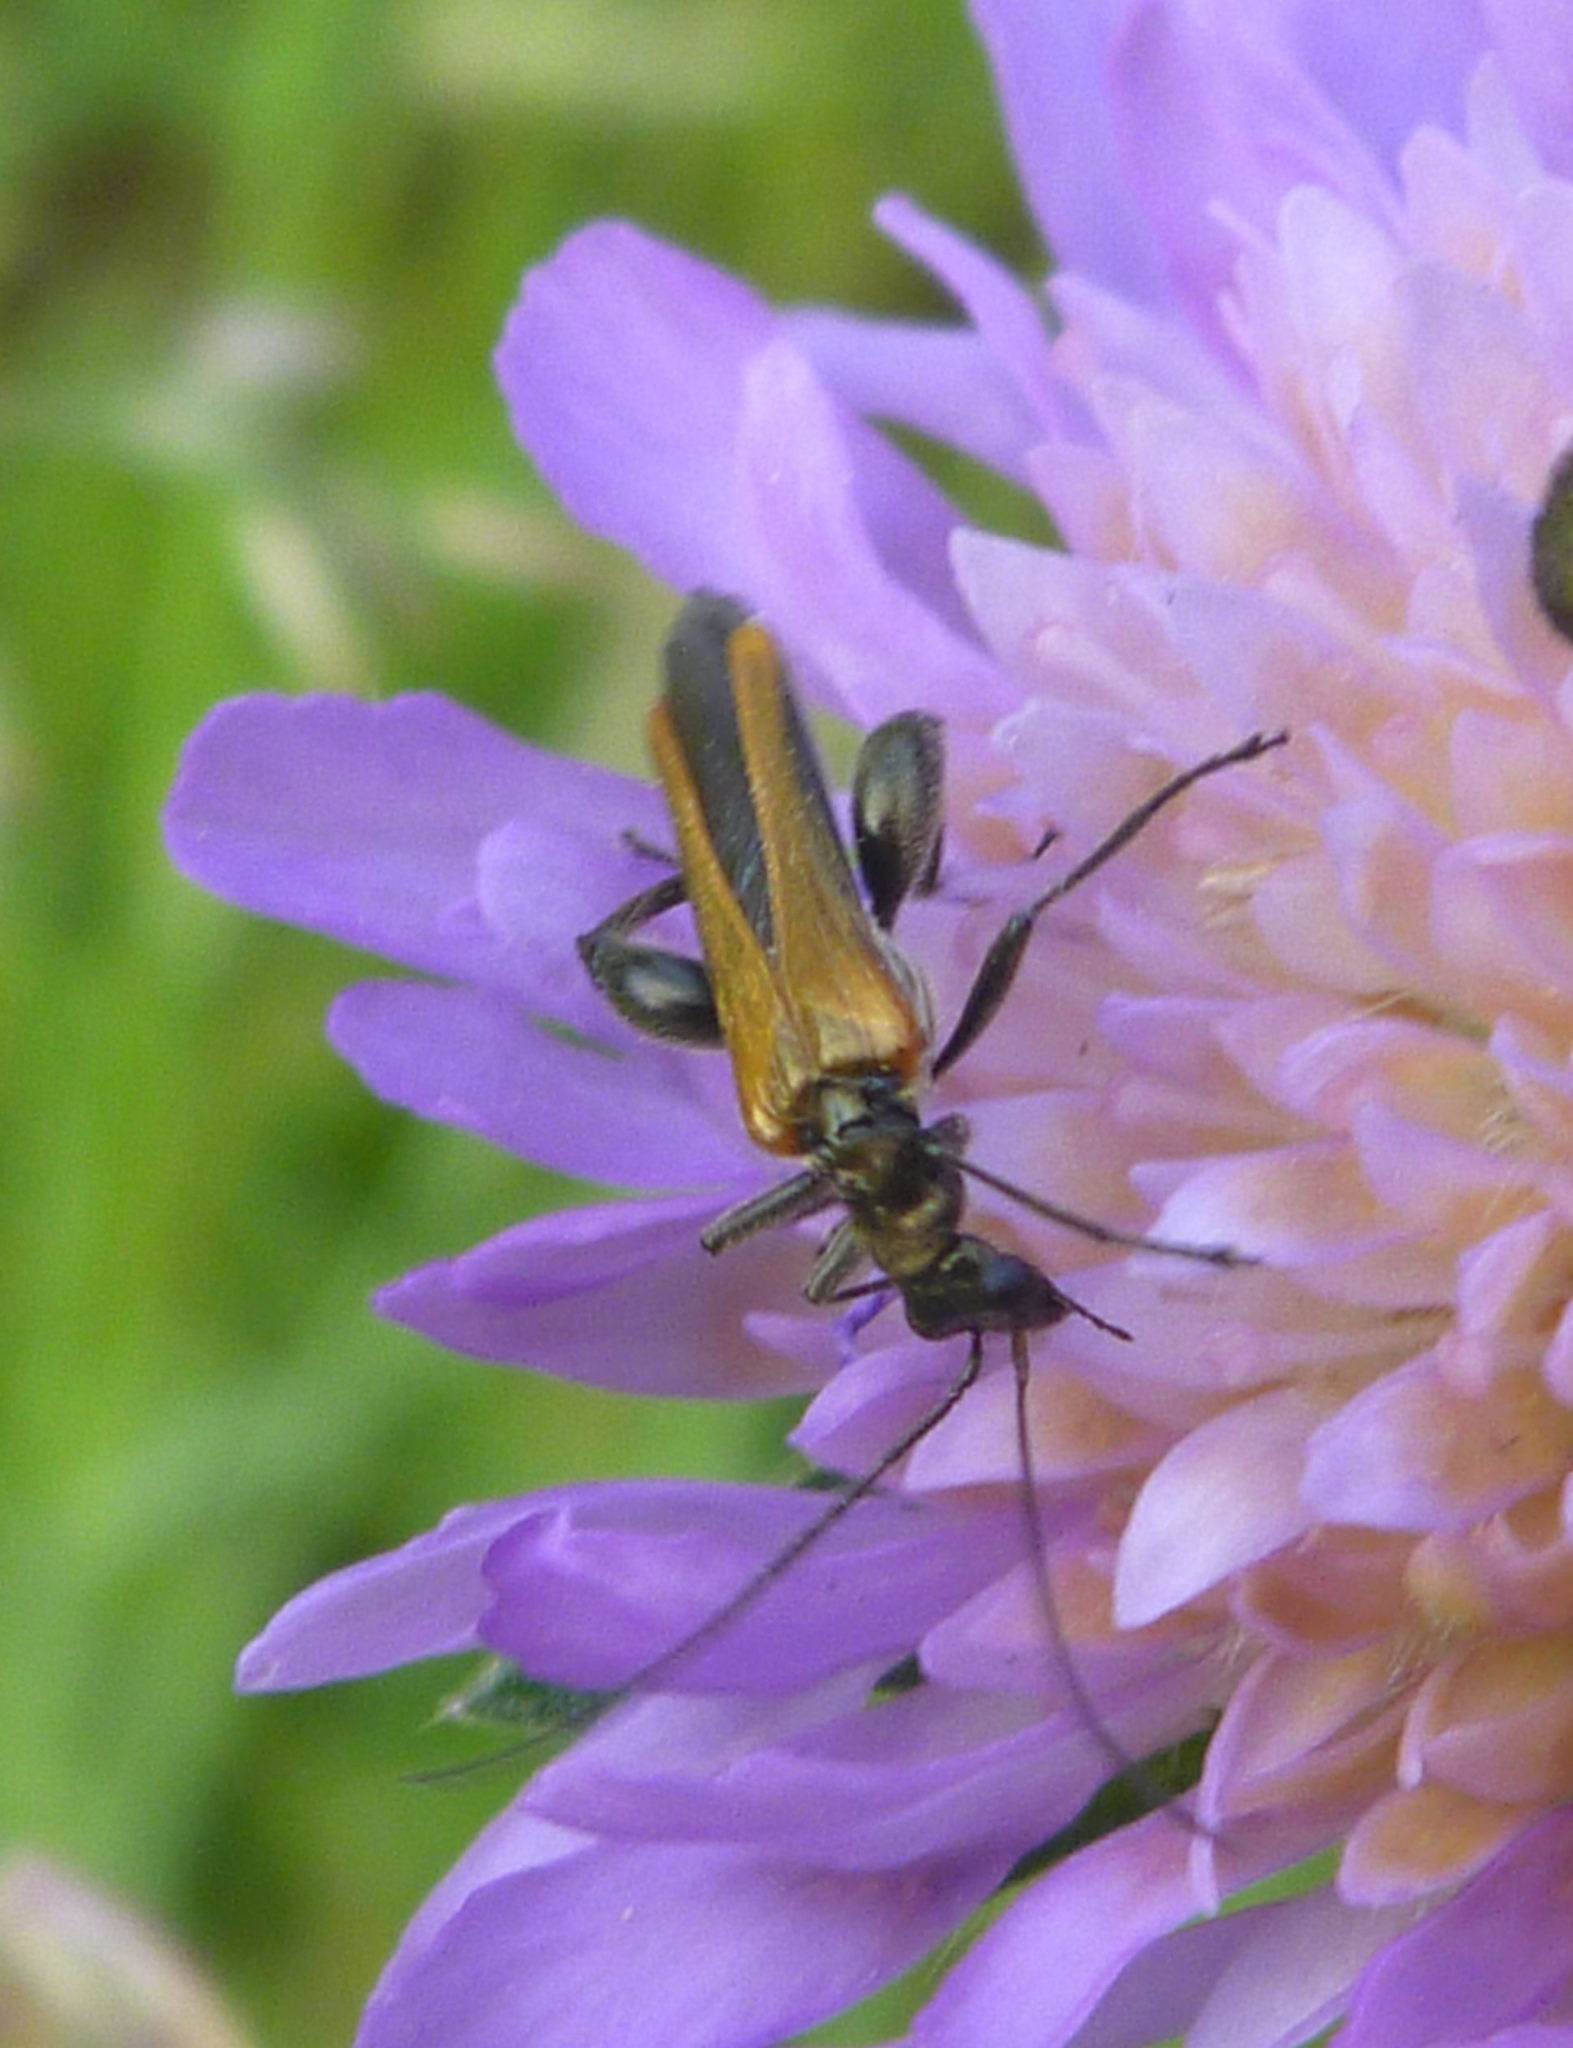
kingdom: Animalia
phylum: Arthropoda
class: Insecta
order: Coleoptera
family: Oedemeridae
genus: Oedemera
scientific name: Oedemera femorata
